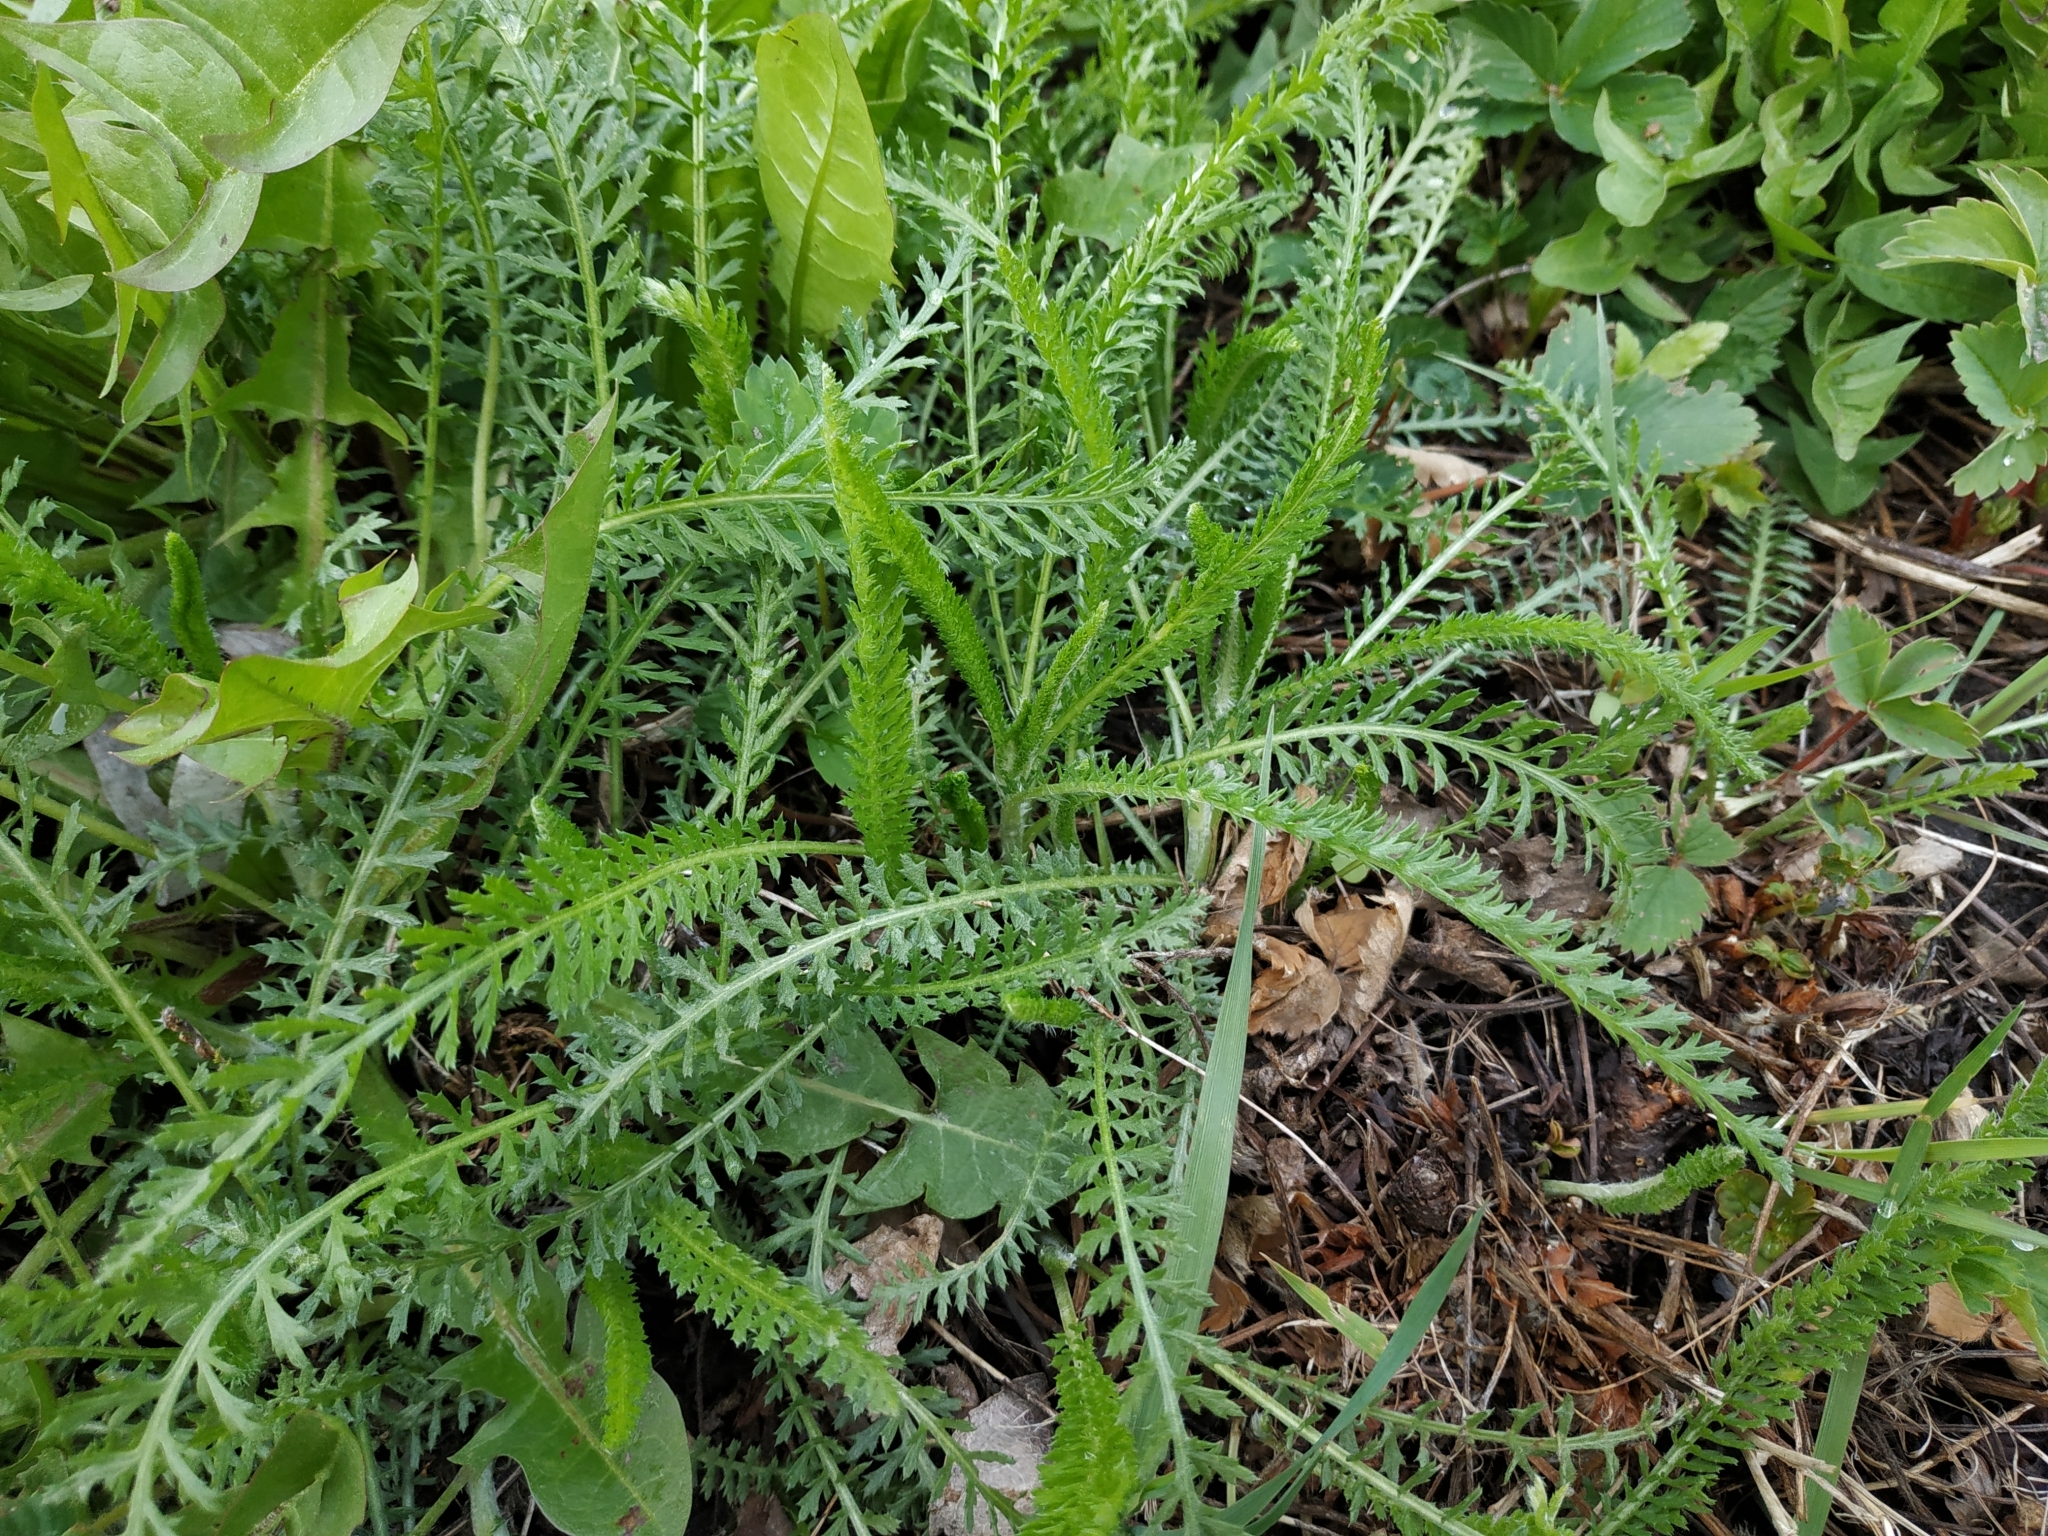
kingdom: Plantae
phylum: Tracheophyta
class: Magnoliopsida
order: Asterales
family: Asteraceae
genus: Achillea
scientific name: Achillea millefolium
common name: Yarrow
